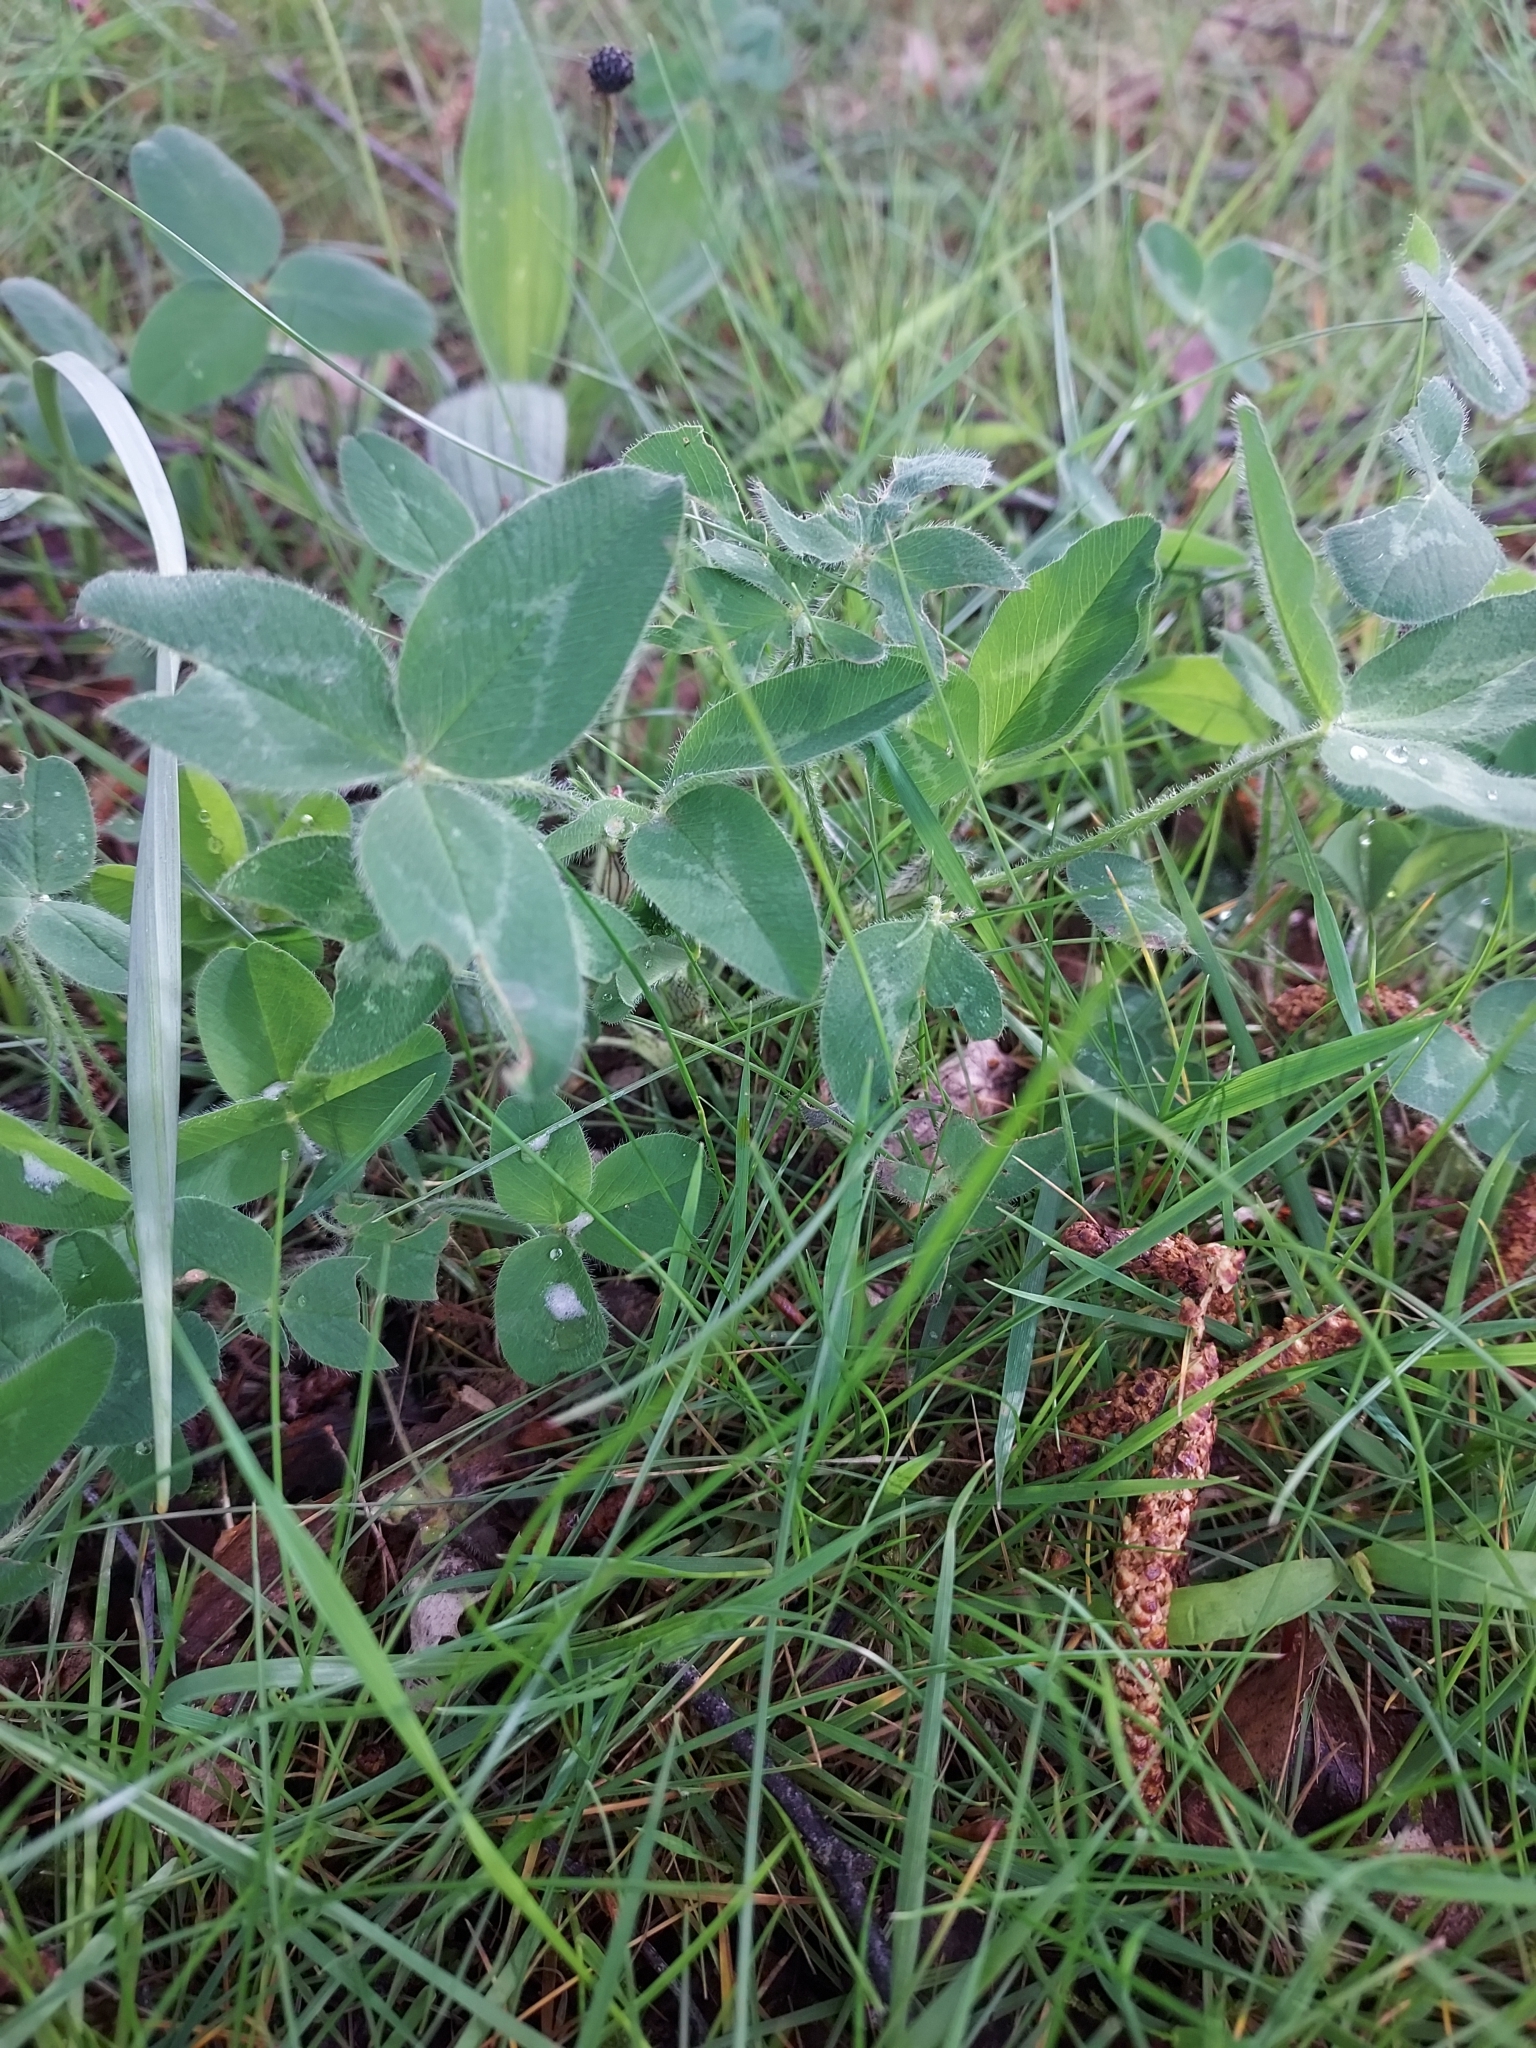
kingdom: Plantae
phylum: Tracheophyta
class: Magnoliopsida
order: Fabales
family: Fabaceae
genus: Trifolium
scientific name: Trifolium pratense
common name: Red clover
